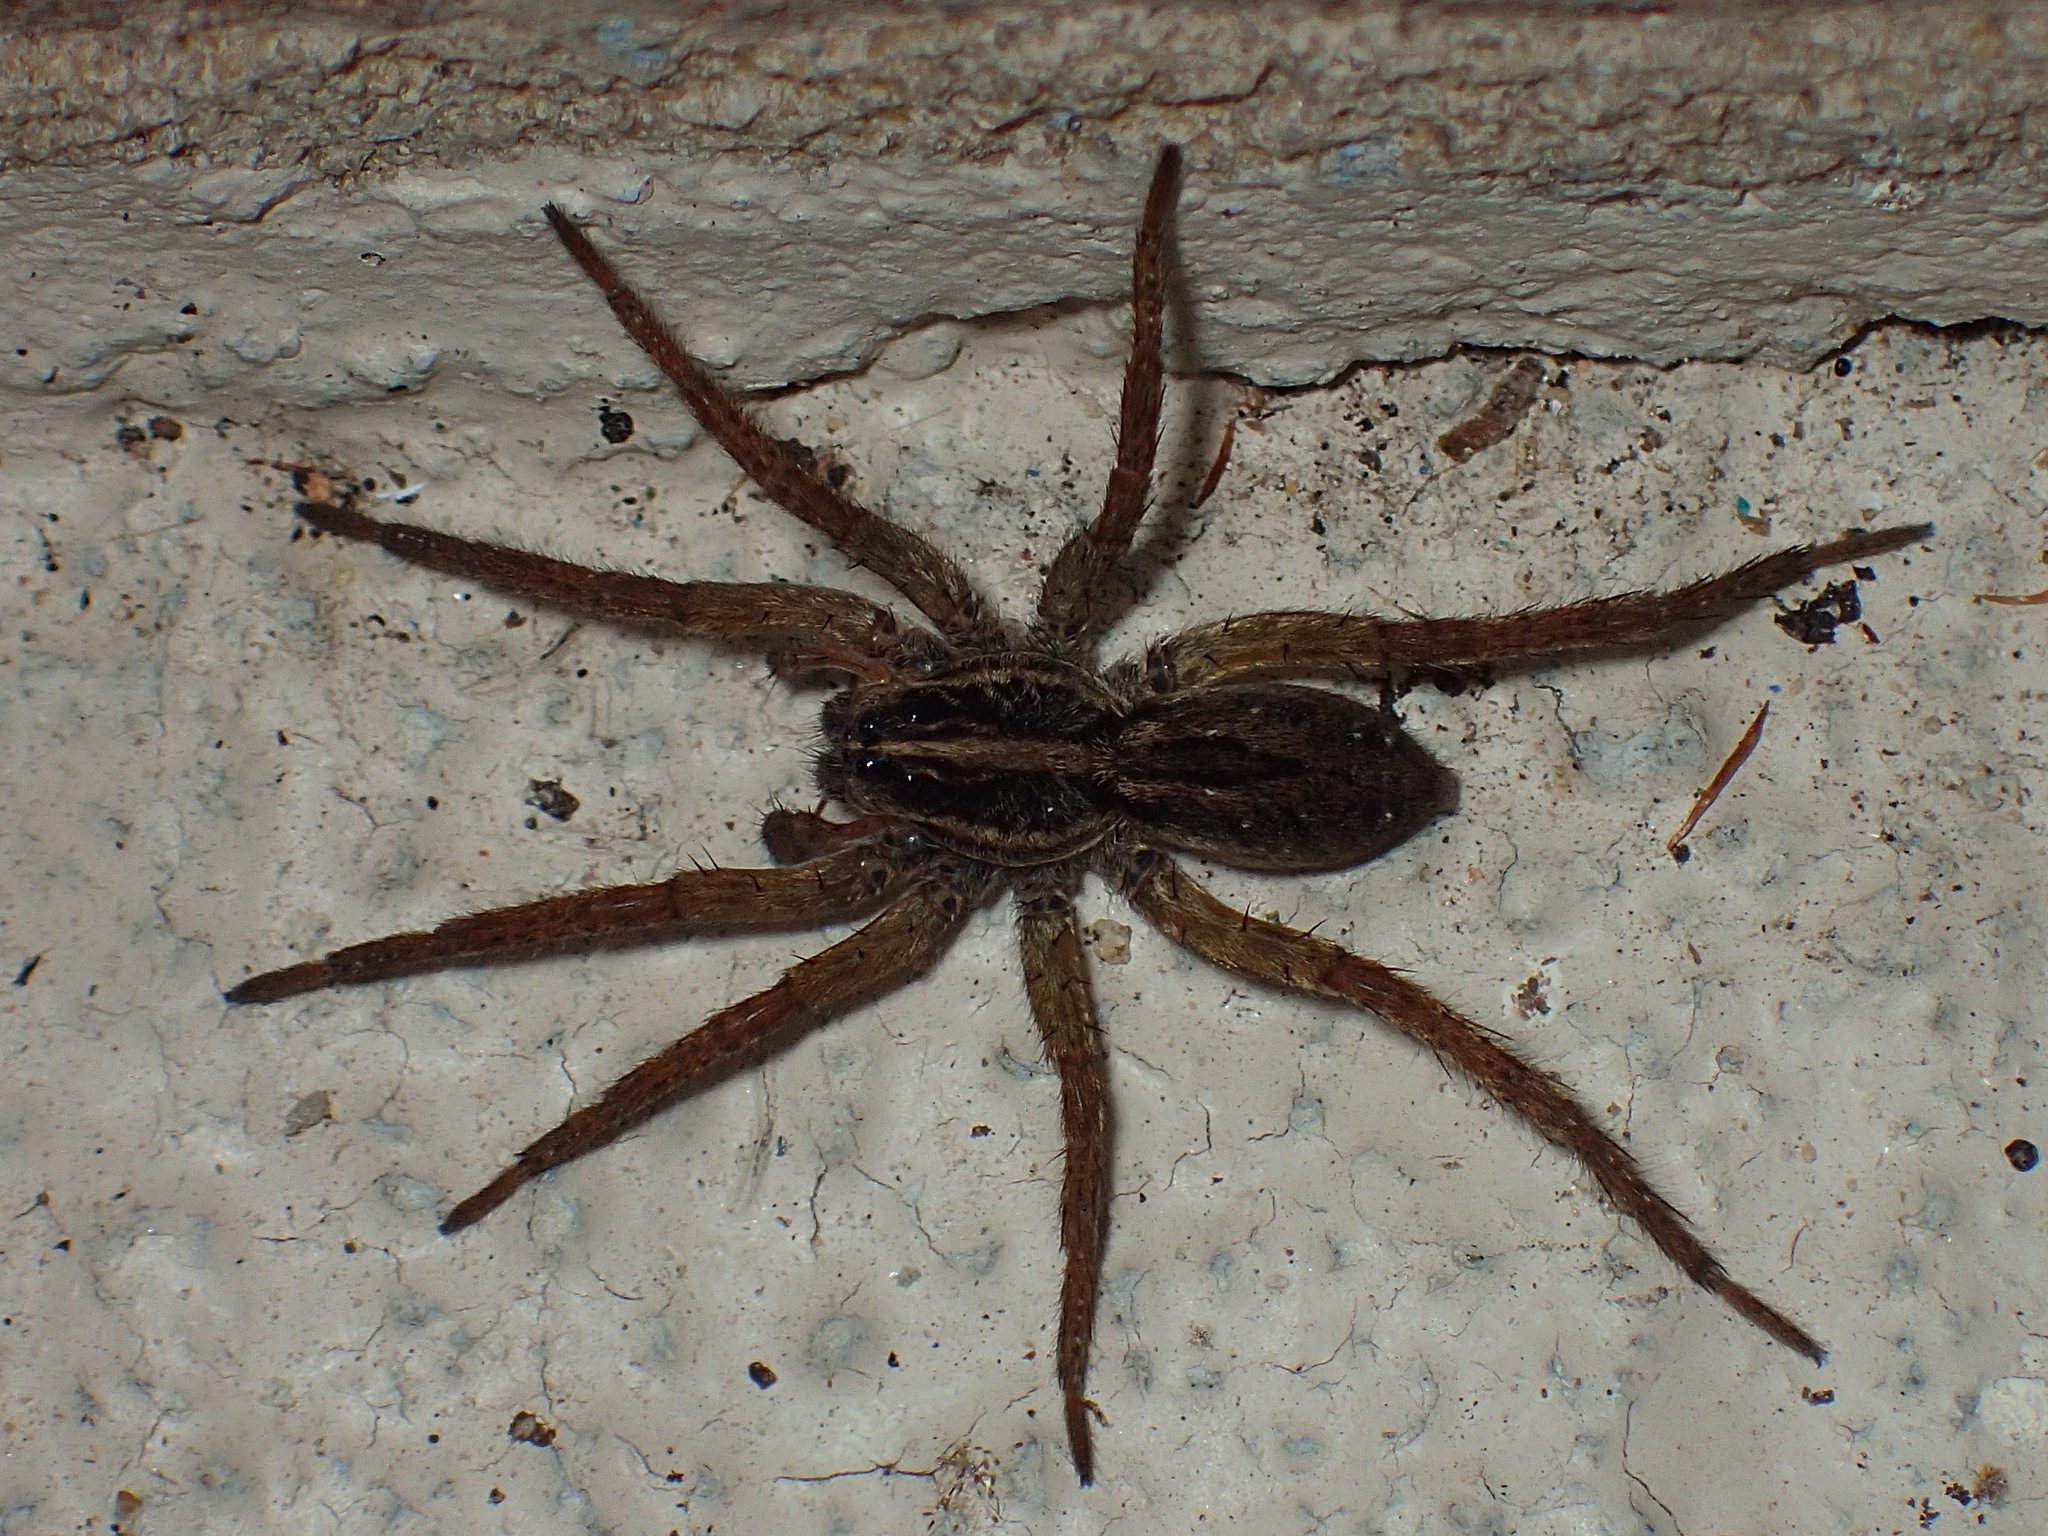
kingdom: Animalia
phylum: Arthropoda
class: Arachnida
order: Araneae
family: Lycosidae
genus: Tigrosa
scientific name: Tigrosa annexa
